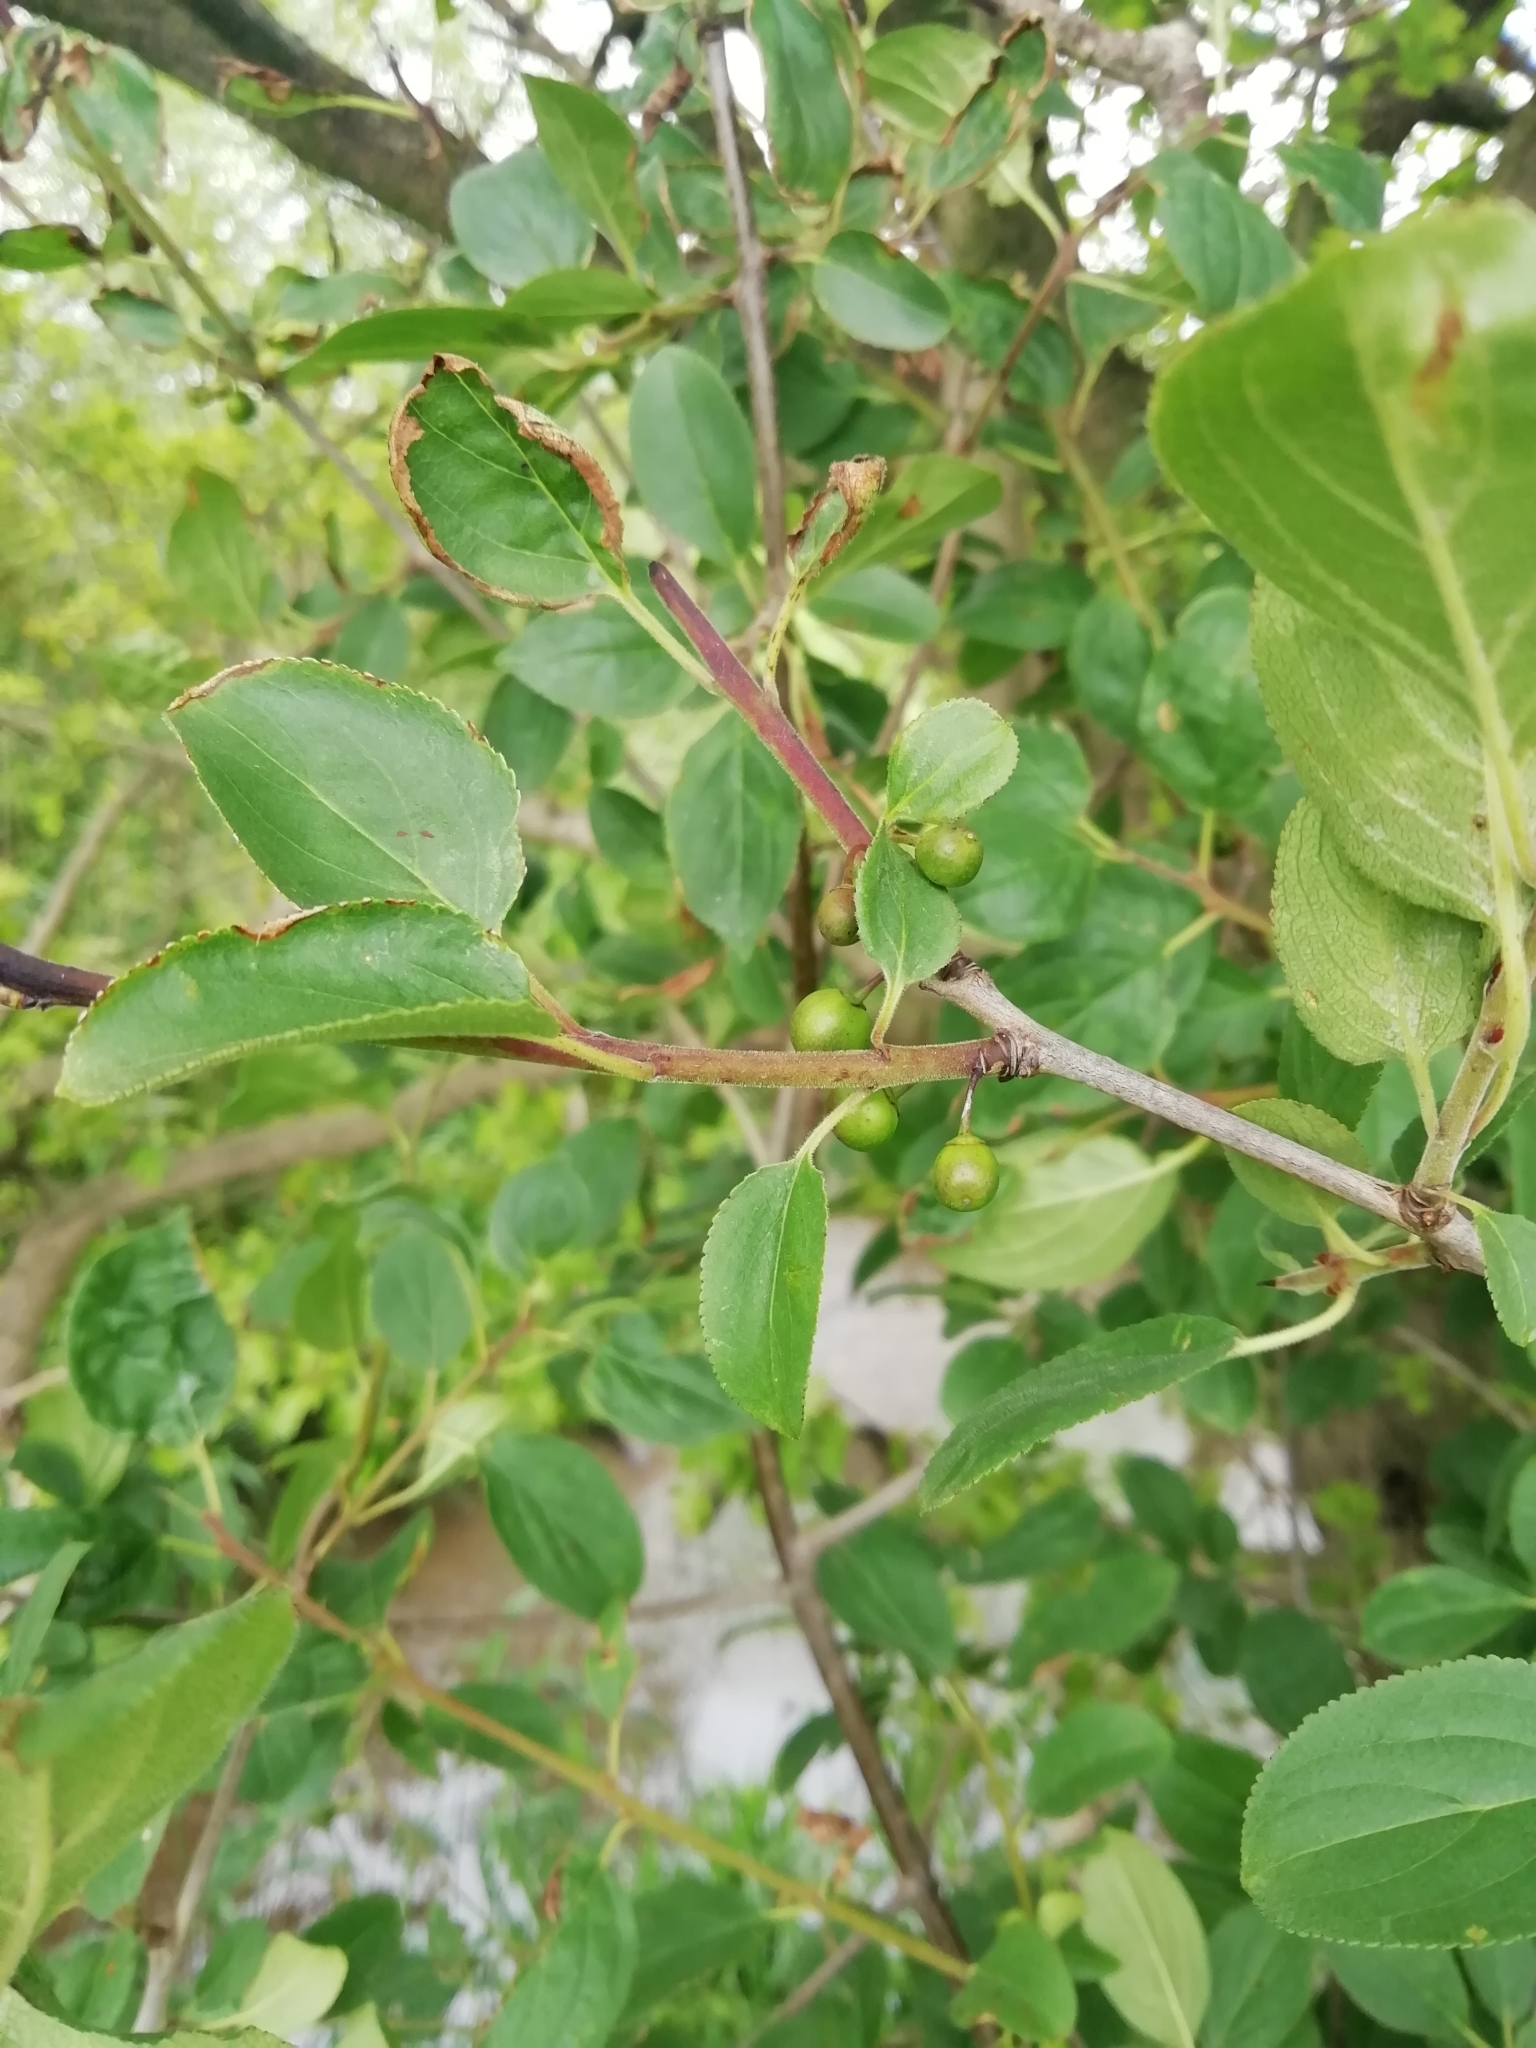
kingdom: Plantae
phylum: Tracheophyta
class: Magnoliopsida
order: Rosales
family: Rhamnaceae
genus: Rhamnus
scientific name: Rhamnus cathartica
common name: Common buckthorn
